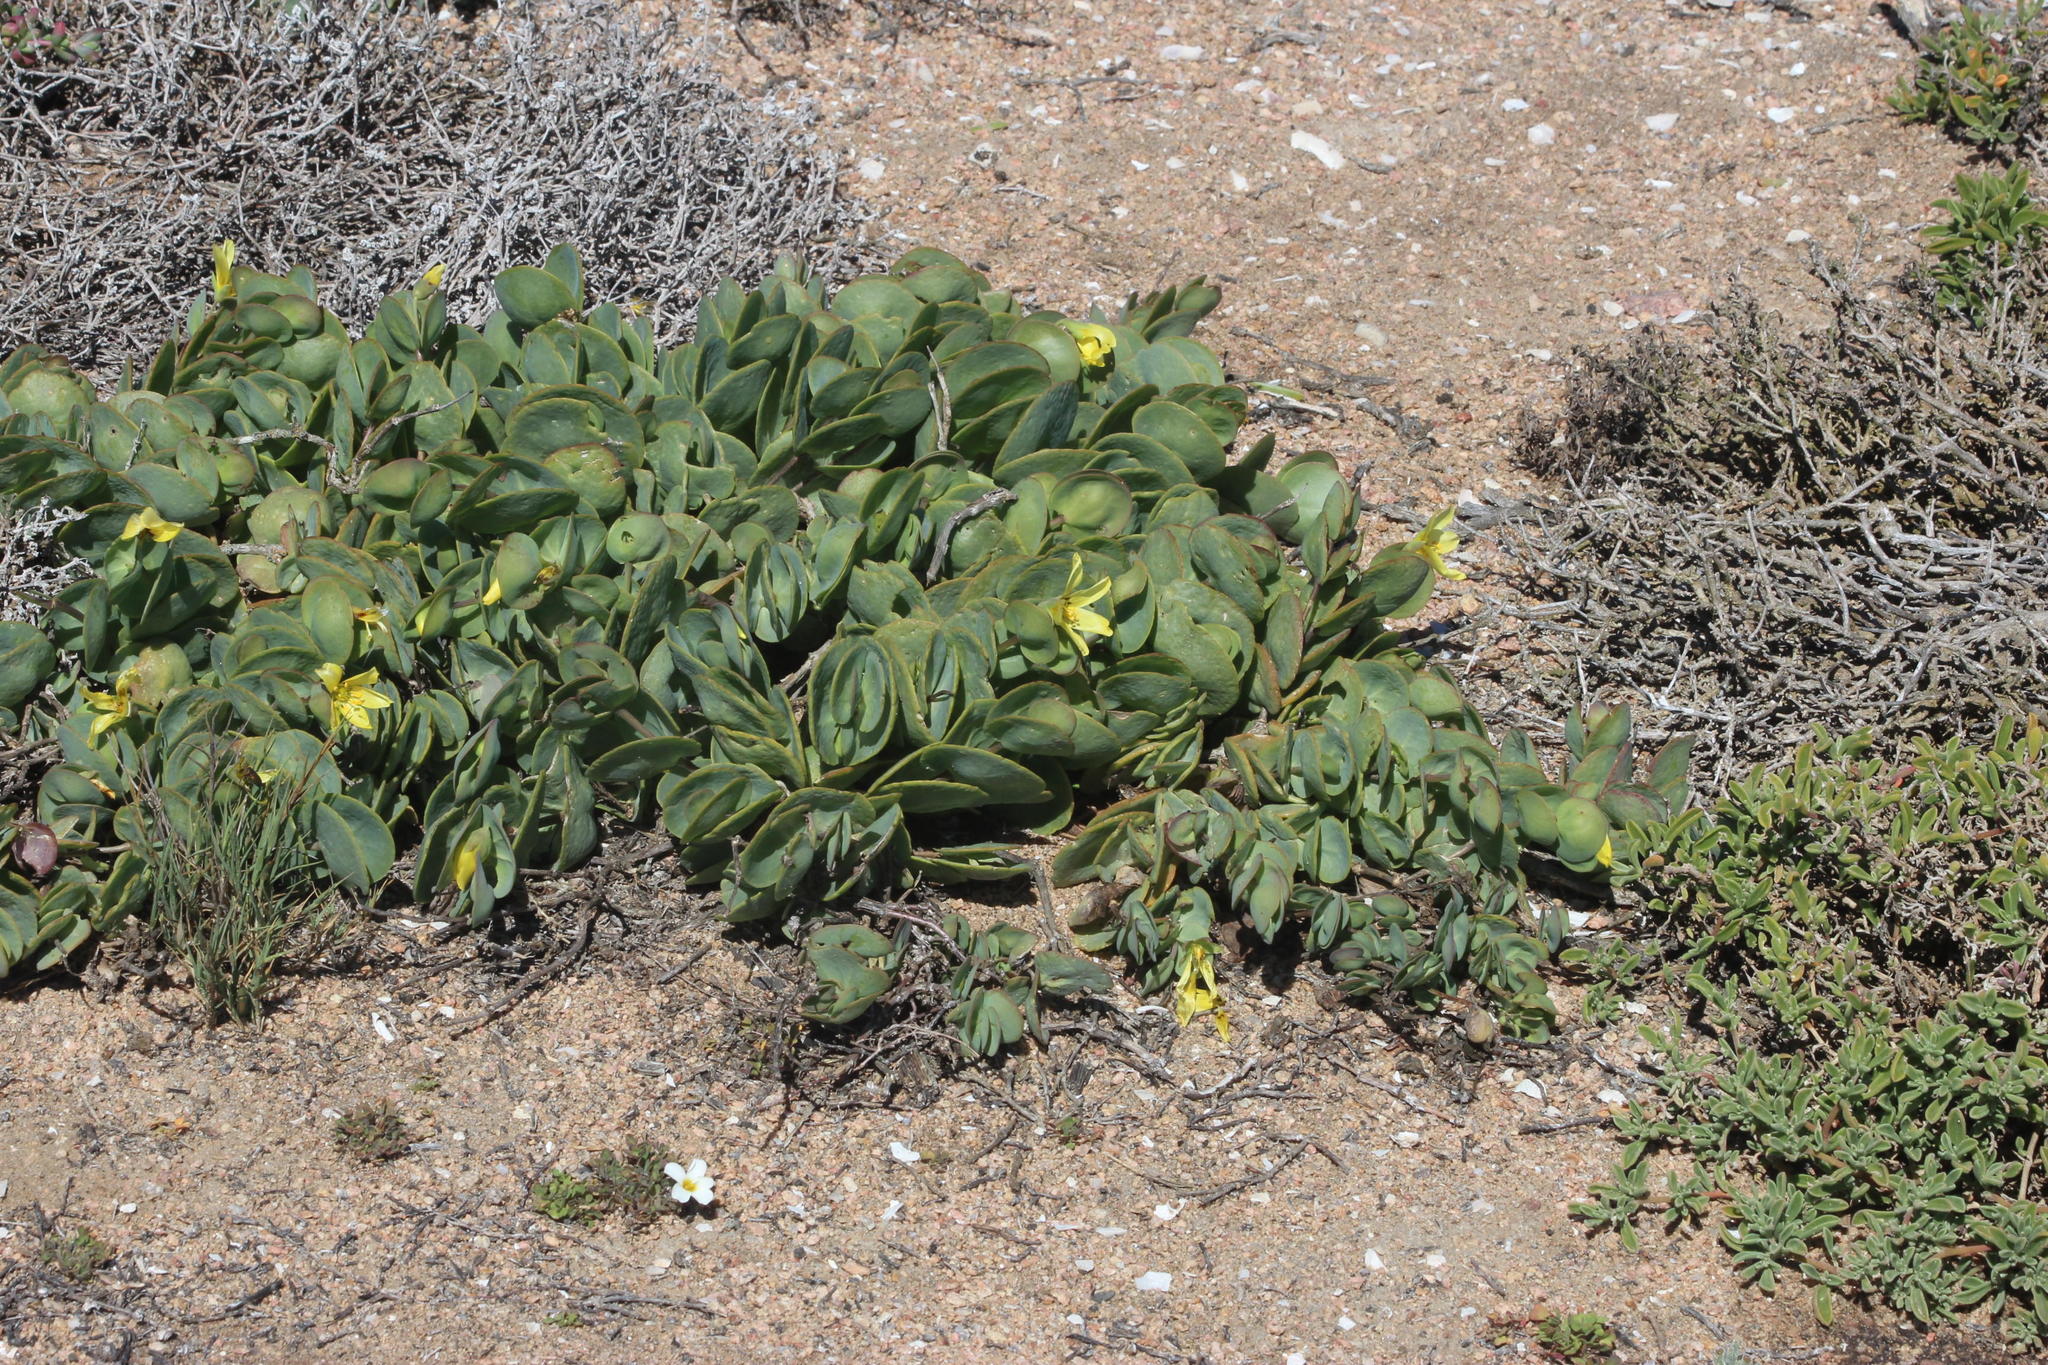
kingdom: Plantae
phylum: Tracheophyta
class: Magnoliopsida
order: Zygophyllales
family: Zygophyllaceae
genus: Roepera
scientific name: Roepera cordifolia
